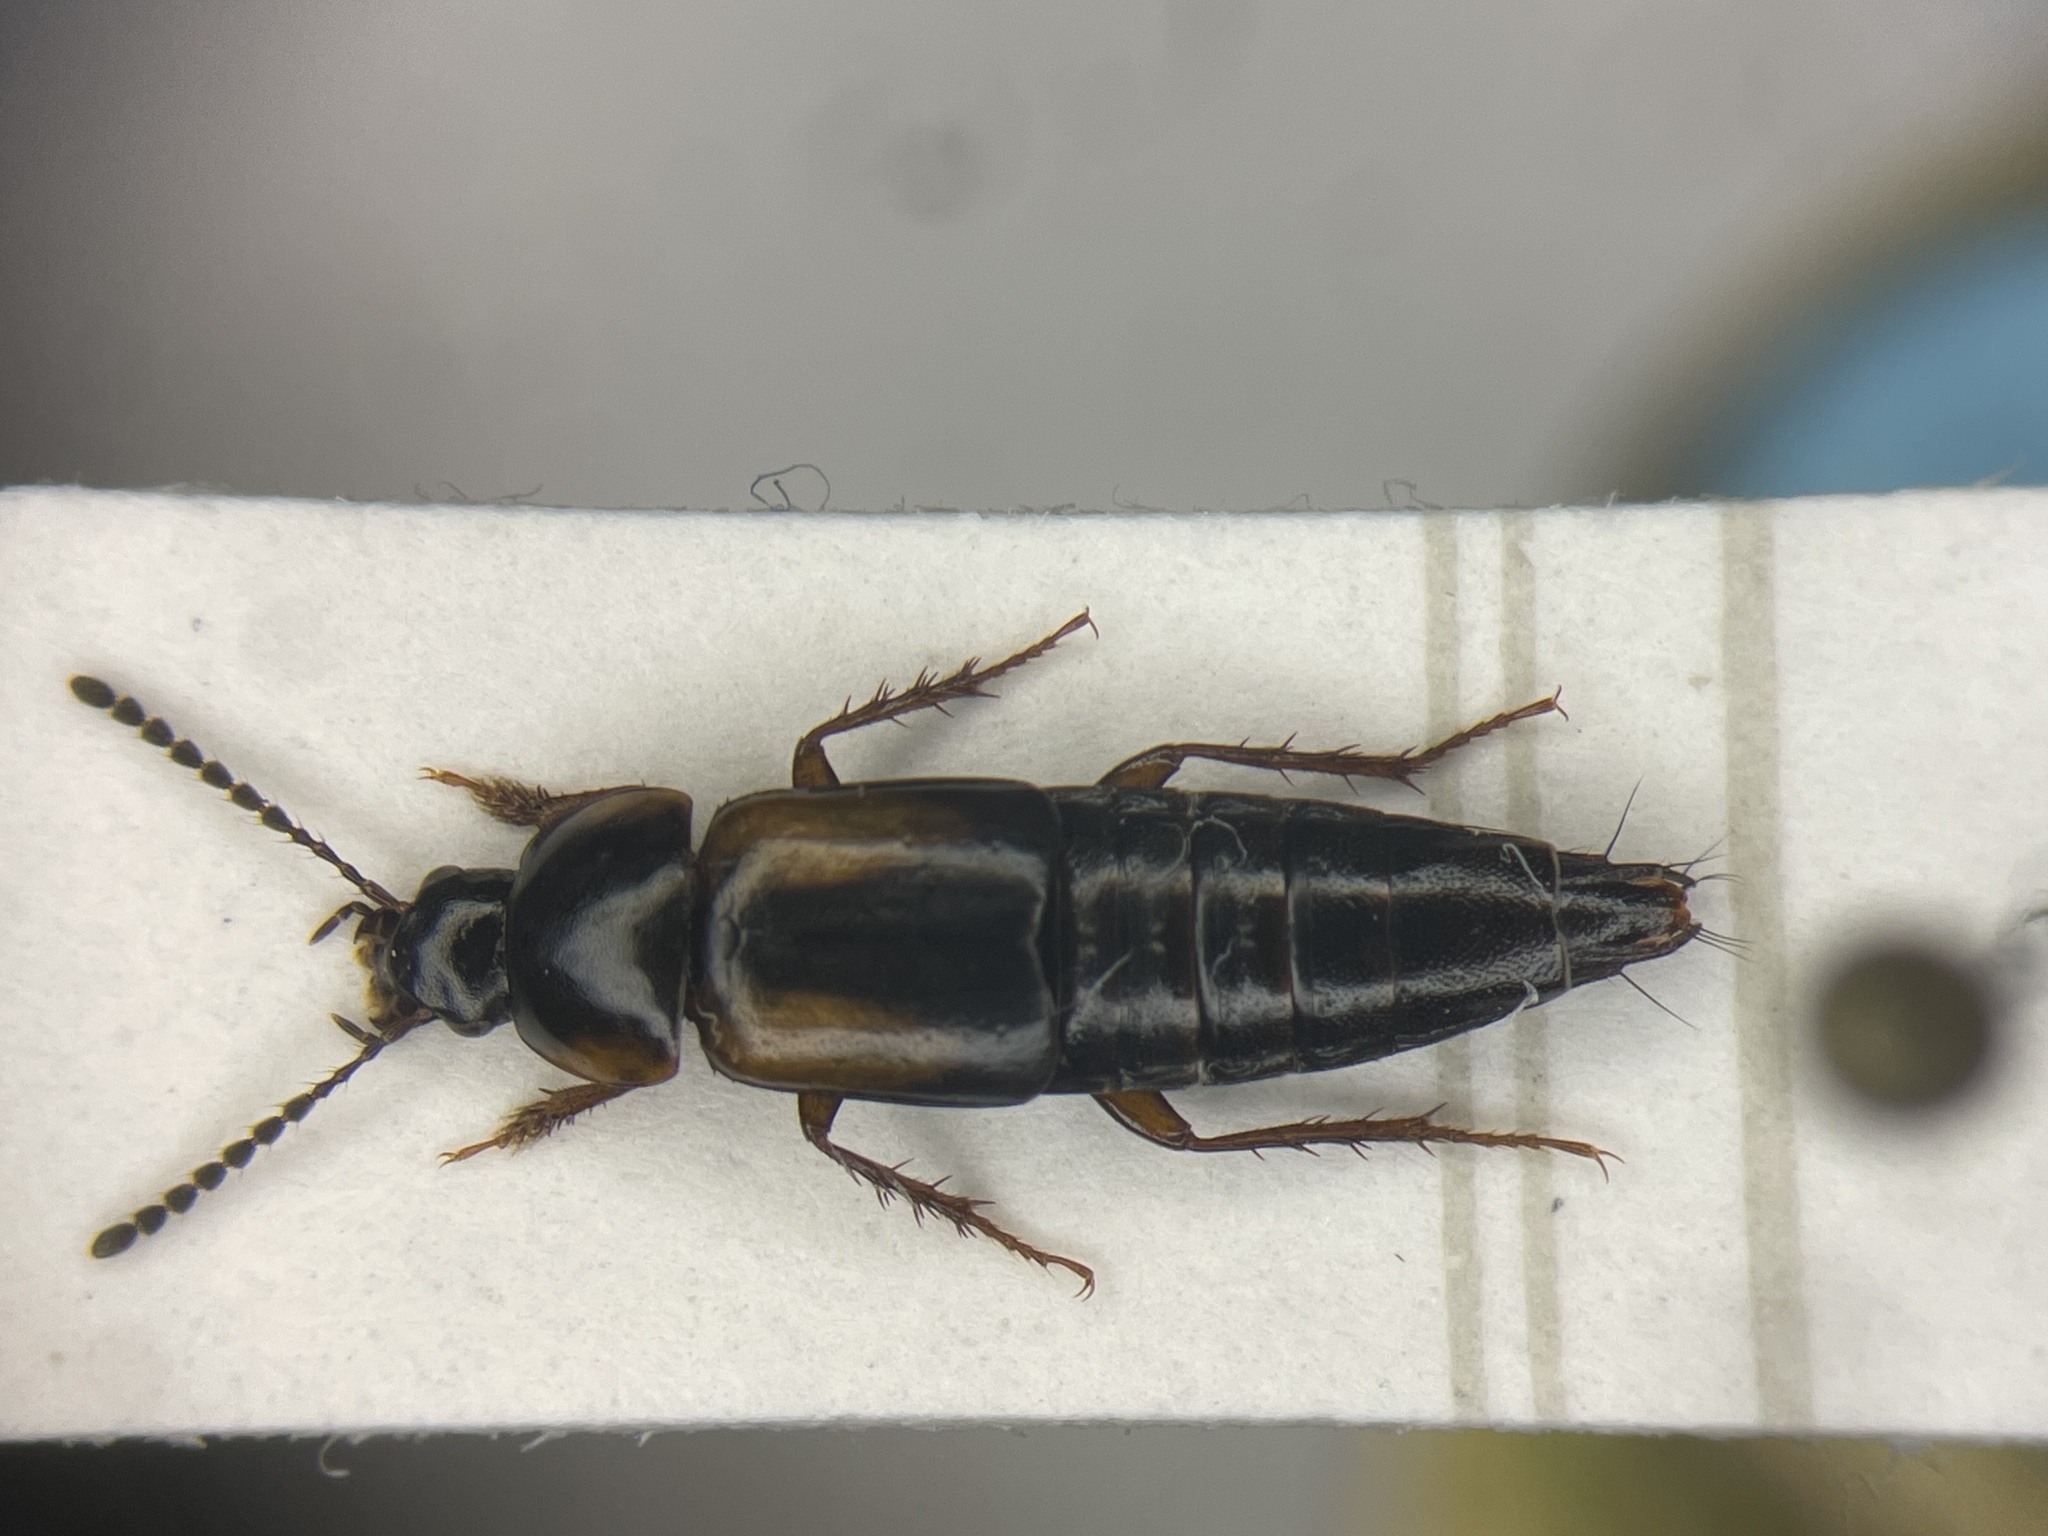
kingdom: Animalia
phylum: Arthropoda
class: Insecta
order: Coleoptera
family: Staphylinidae
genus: Tachinus
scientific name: Tachinus subterraneus
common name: Staph beetle
